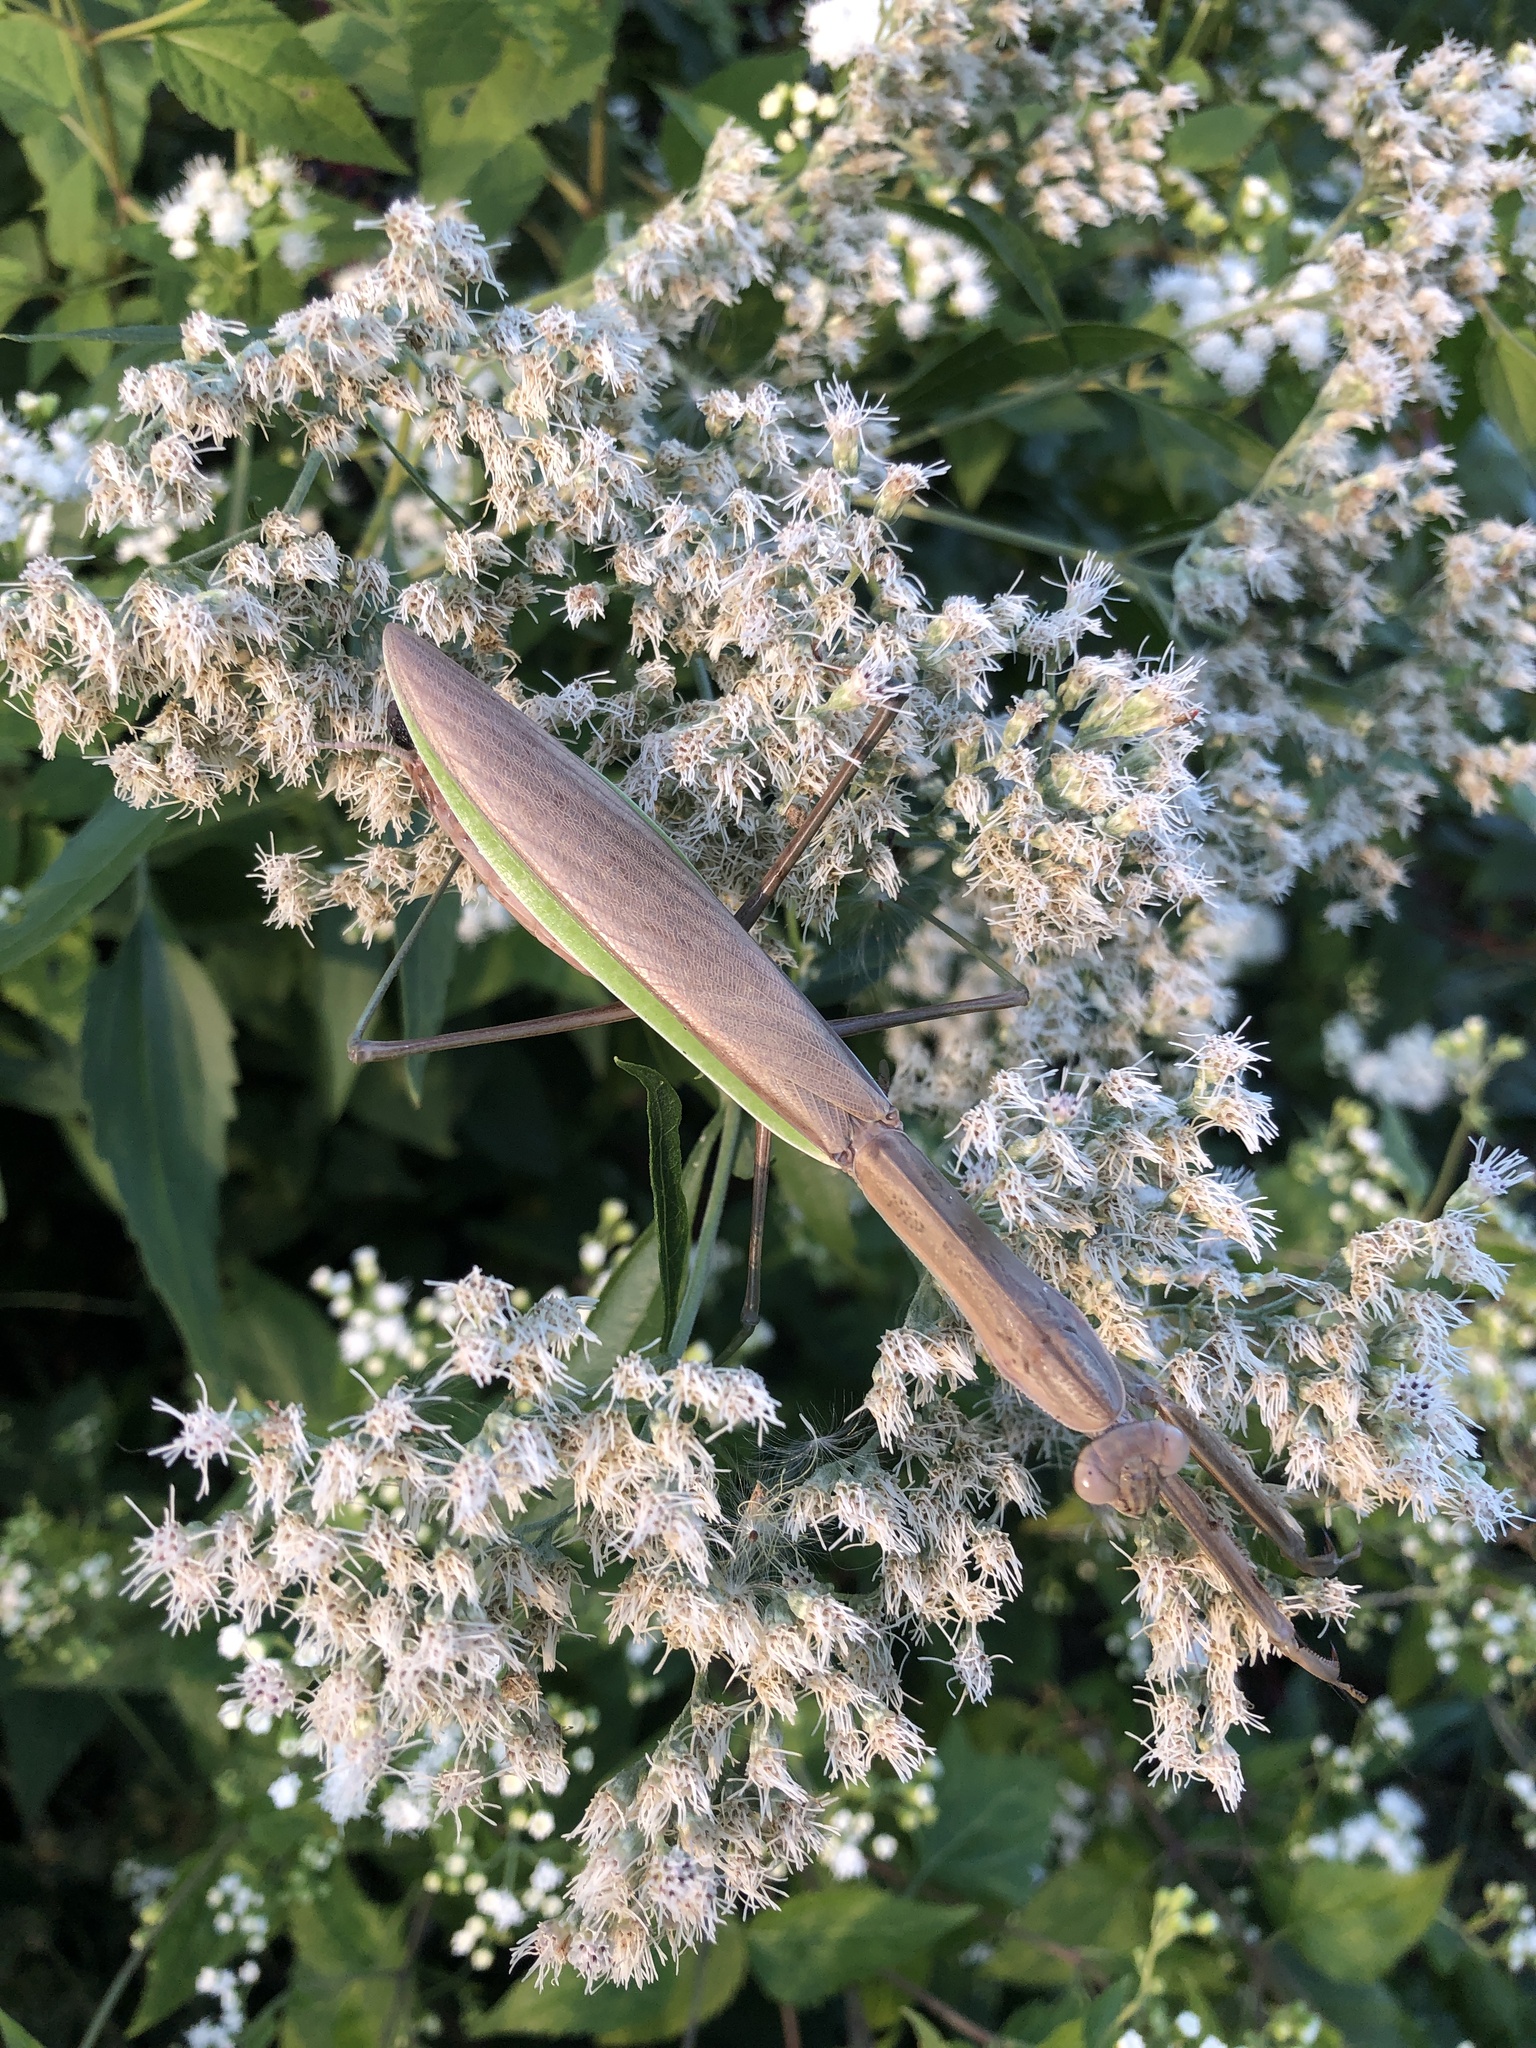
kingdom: Animalia
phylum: Arthropoda
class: Insecta
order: Mantodea
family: Mantidae
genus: Tenodera
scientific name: Tenodera sinensis
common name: Chinese mantis
